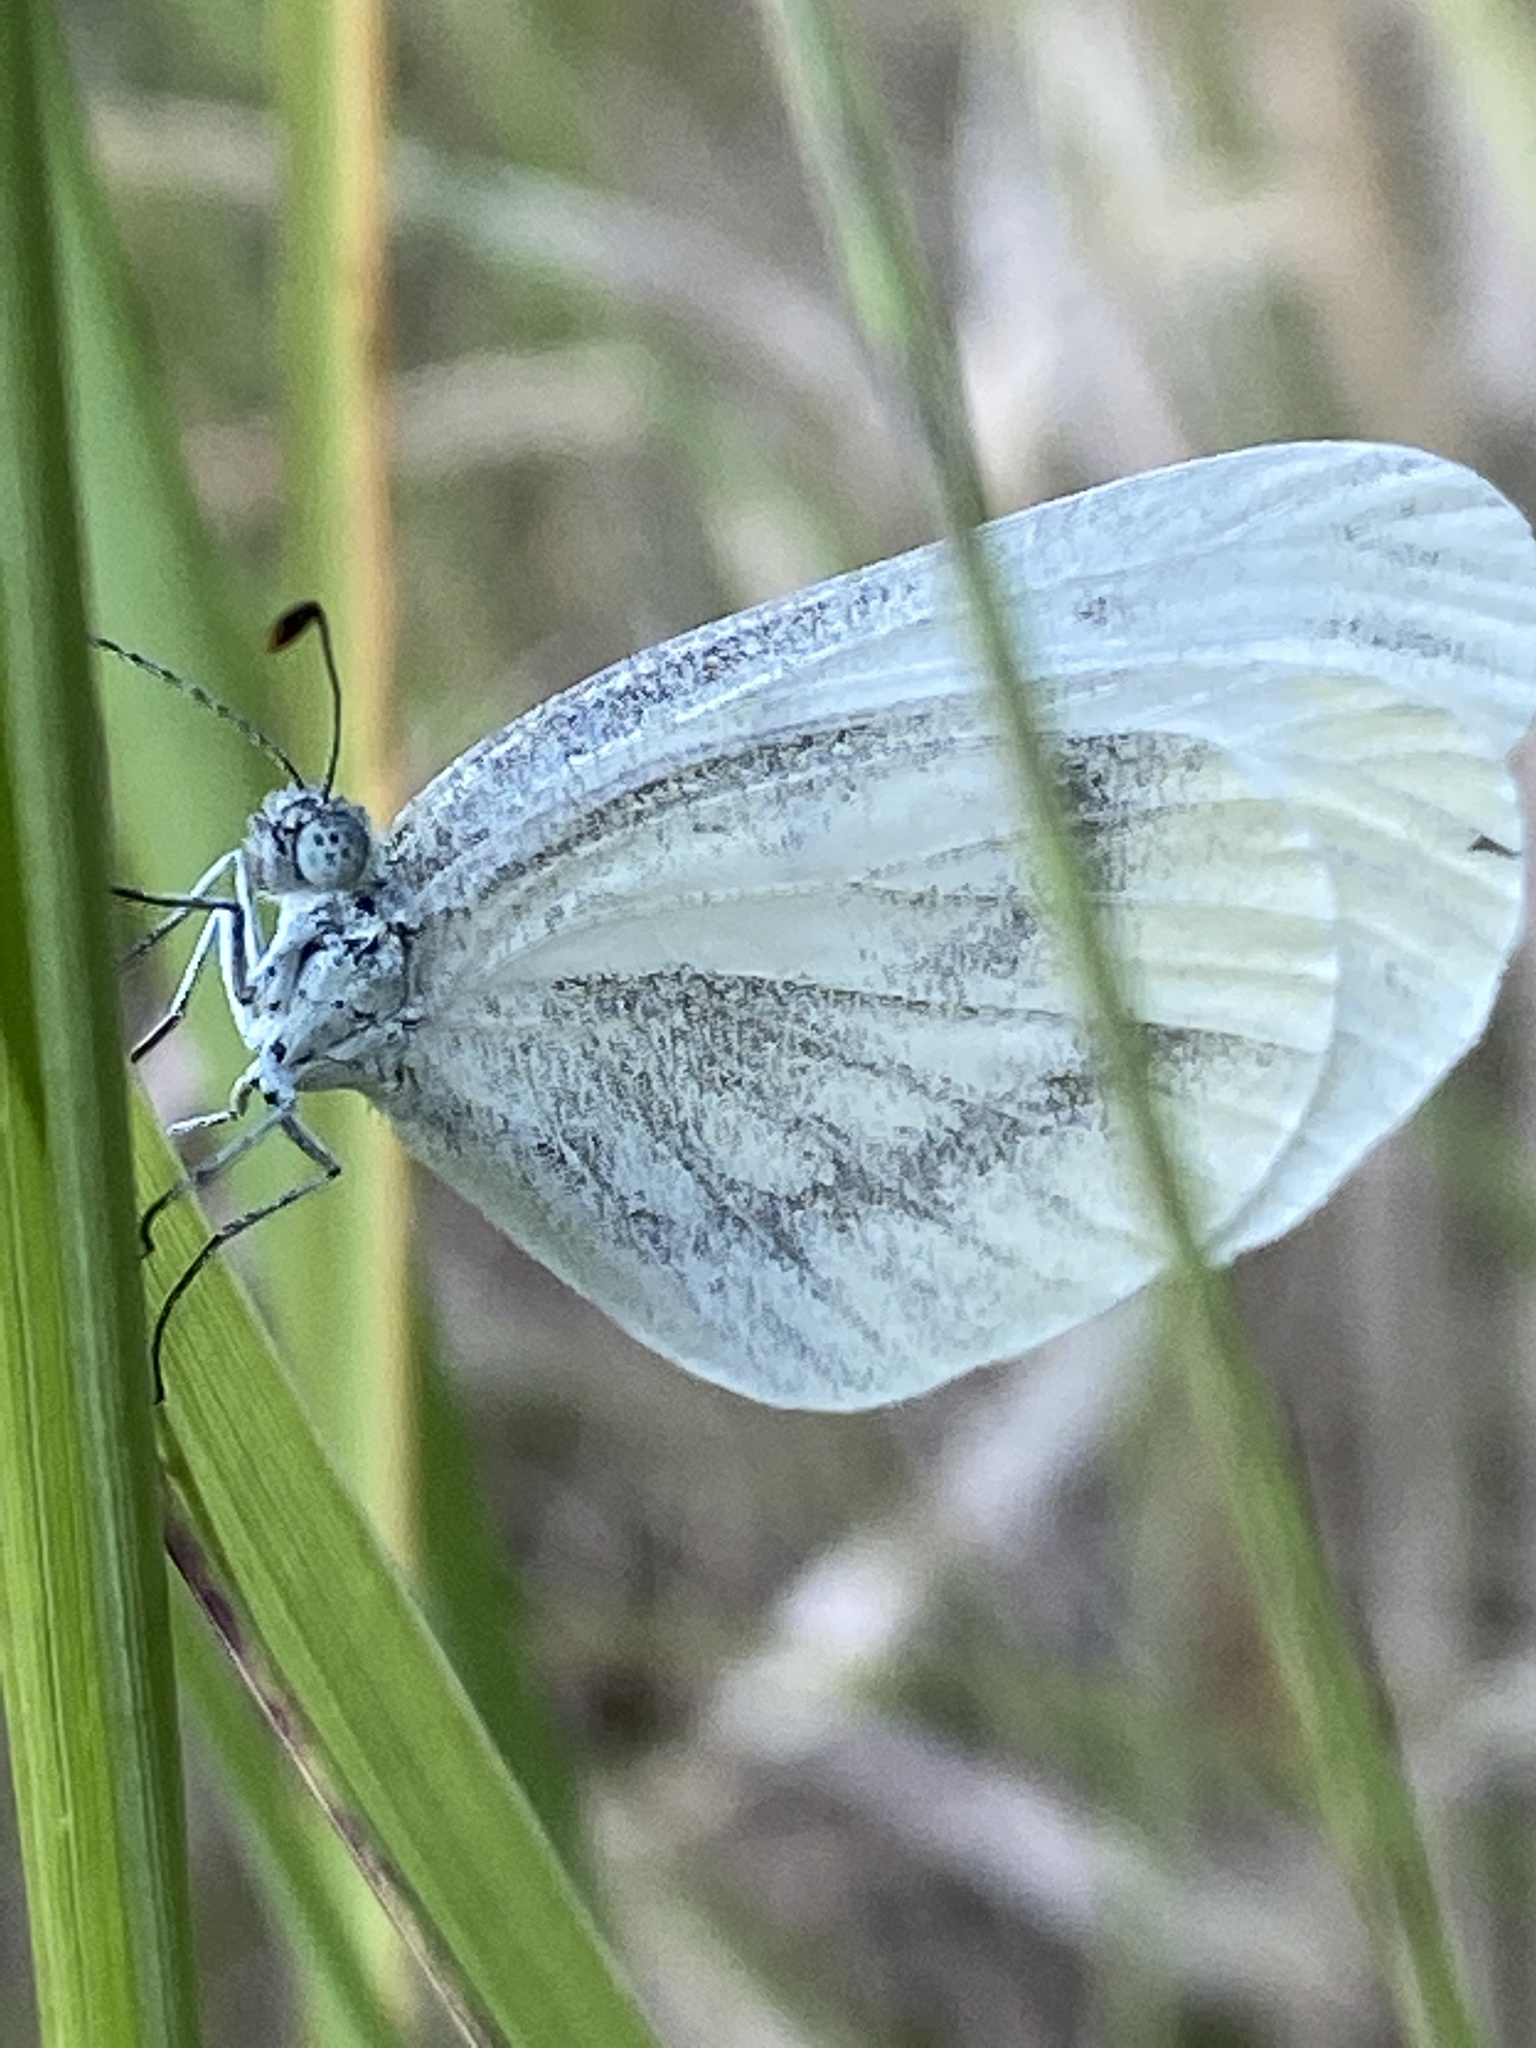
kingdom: Animalia
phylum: Arthropoda
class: Insecta
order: Lepidoptera
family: Pieridae
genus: Leptidea
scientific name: Leptidea
